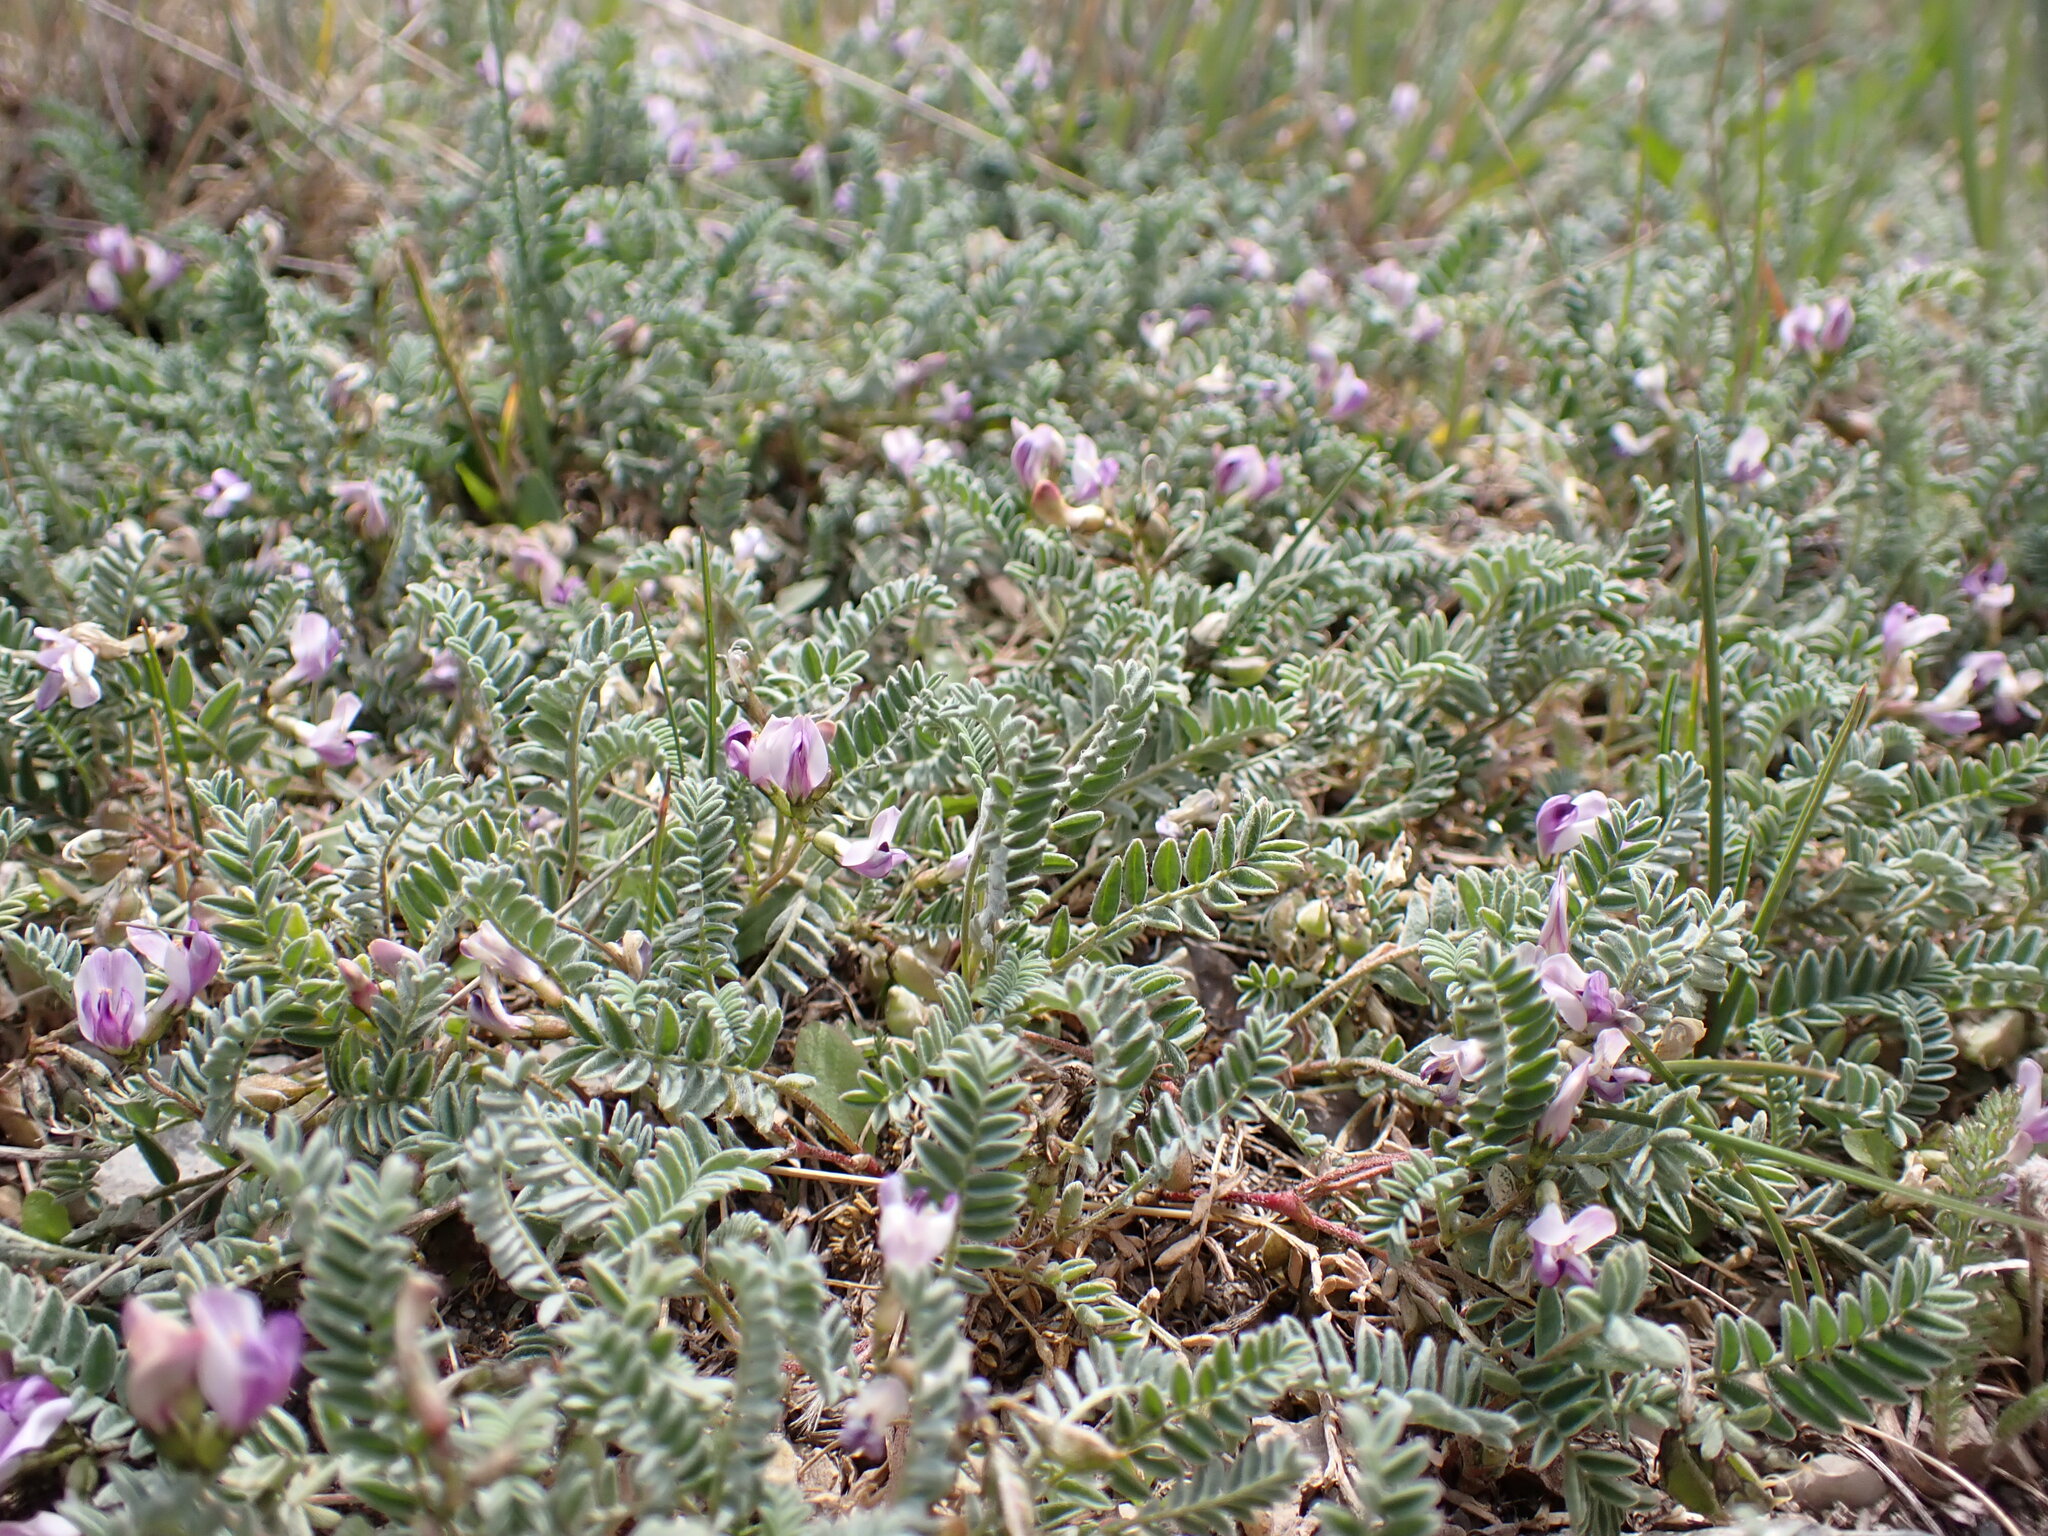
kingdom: Plantae
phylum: Tracheophyta
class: Magnoliopsida
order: Fabales
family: Fabaceae
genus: Astragalus
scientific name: Astragalus molybdenus
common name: Leadville
